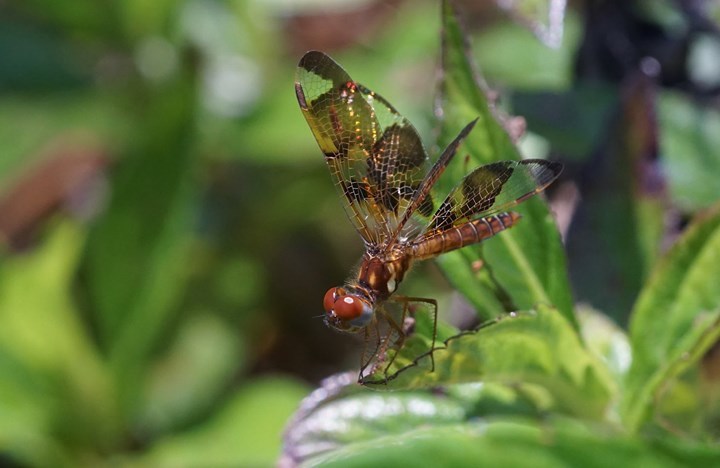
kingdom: Animalia
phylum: Arthropoda
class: Insecta
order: Odonata
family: Libellulidae
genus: Perithemis
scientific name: Perithemis tenera
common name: Eastern amberwing
